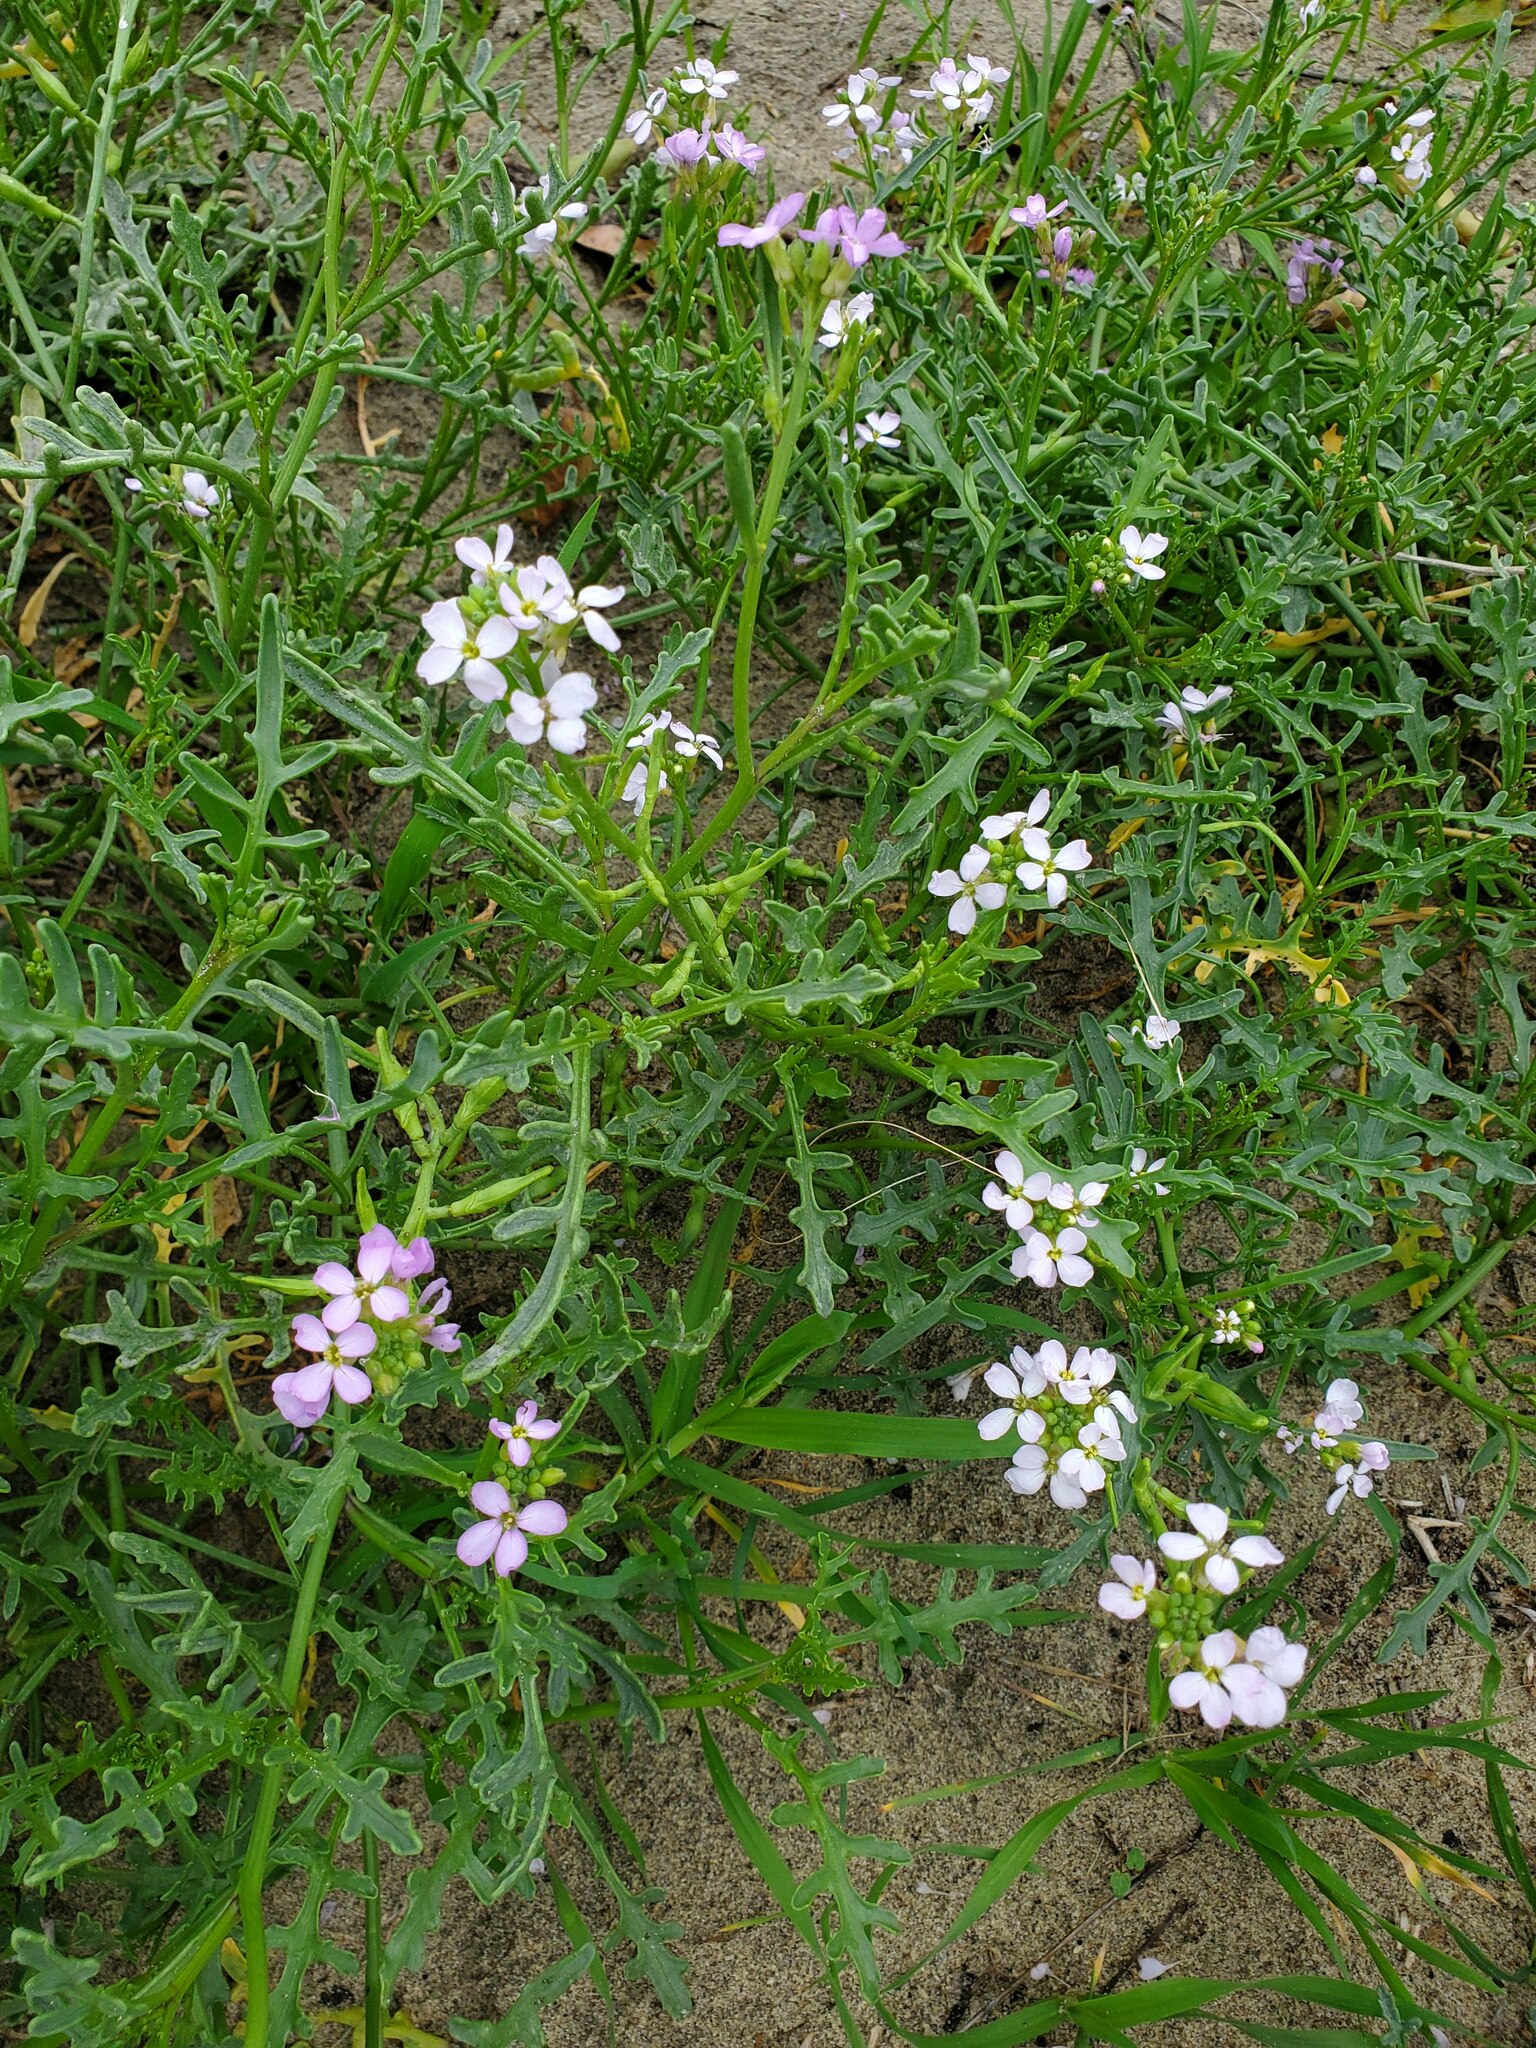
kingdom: Plantae
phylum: Tracheophyta
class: Magnoliopsida
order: Brassicales
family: Brassicaceae
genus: Cakile
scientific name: Cakile maritima
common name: Sea rocket
